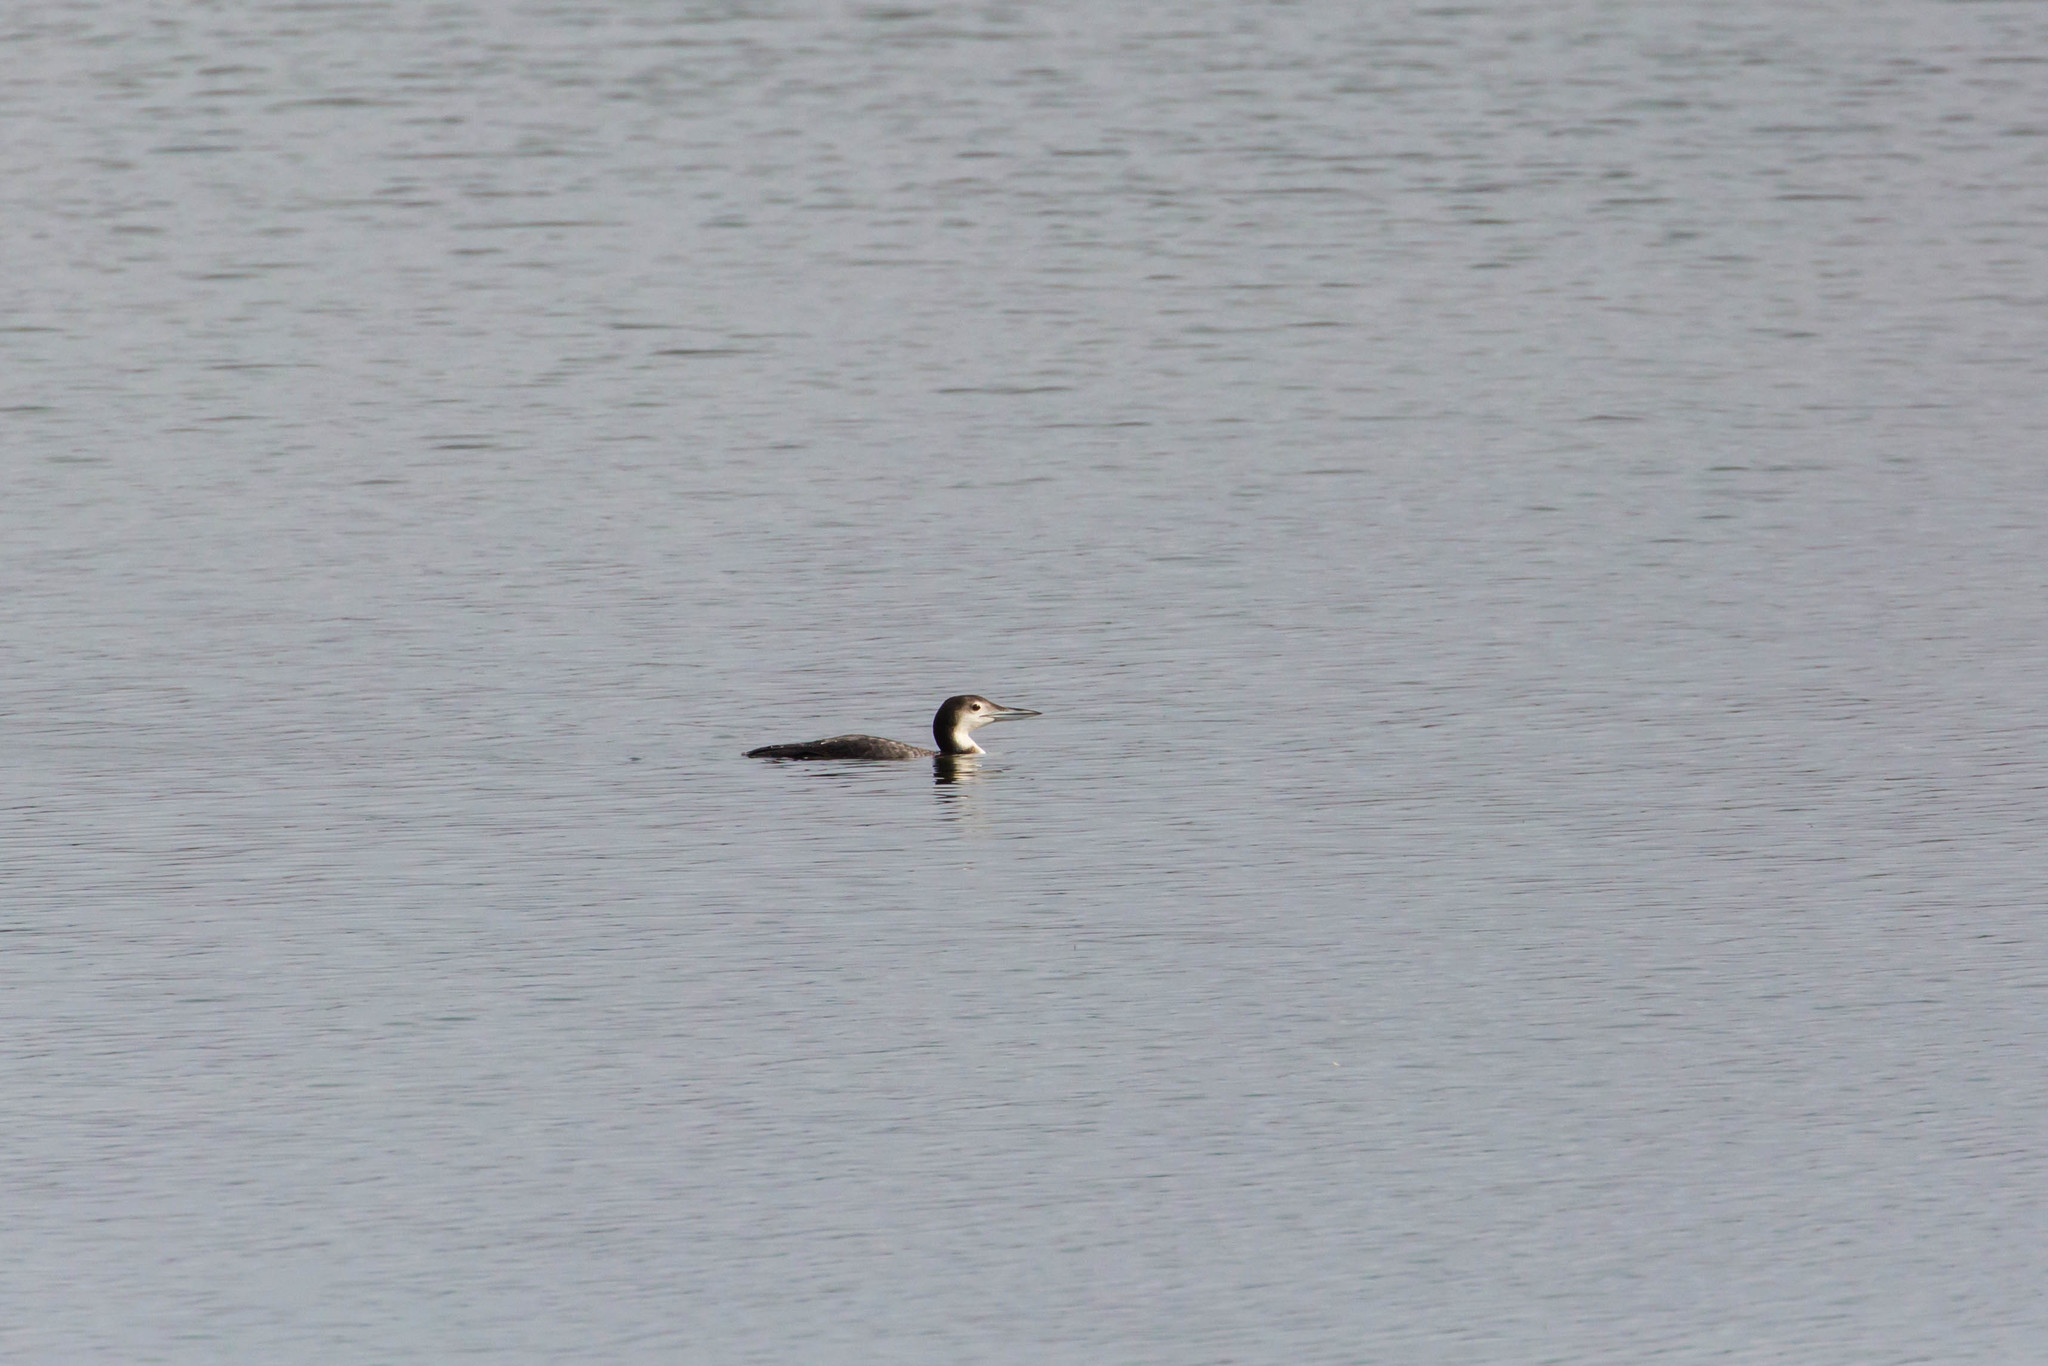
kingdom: Animalia
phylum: Chordata
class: Aves
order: Gaviiformes
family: Gaviidae
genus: Gavia
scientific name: Gavia immer
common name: Common loon
